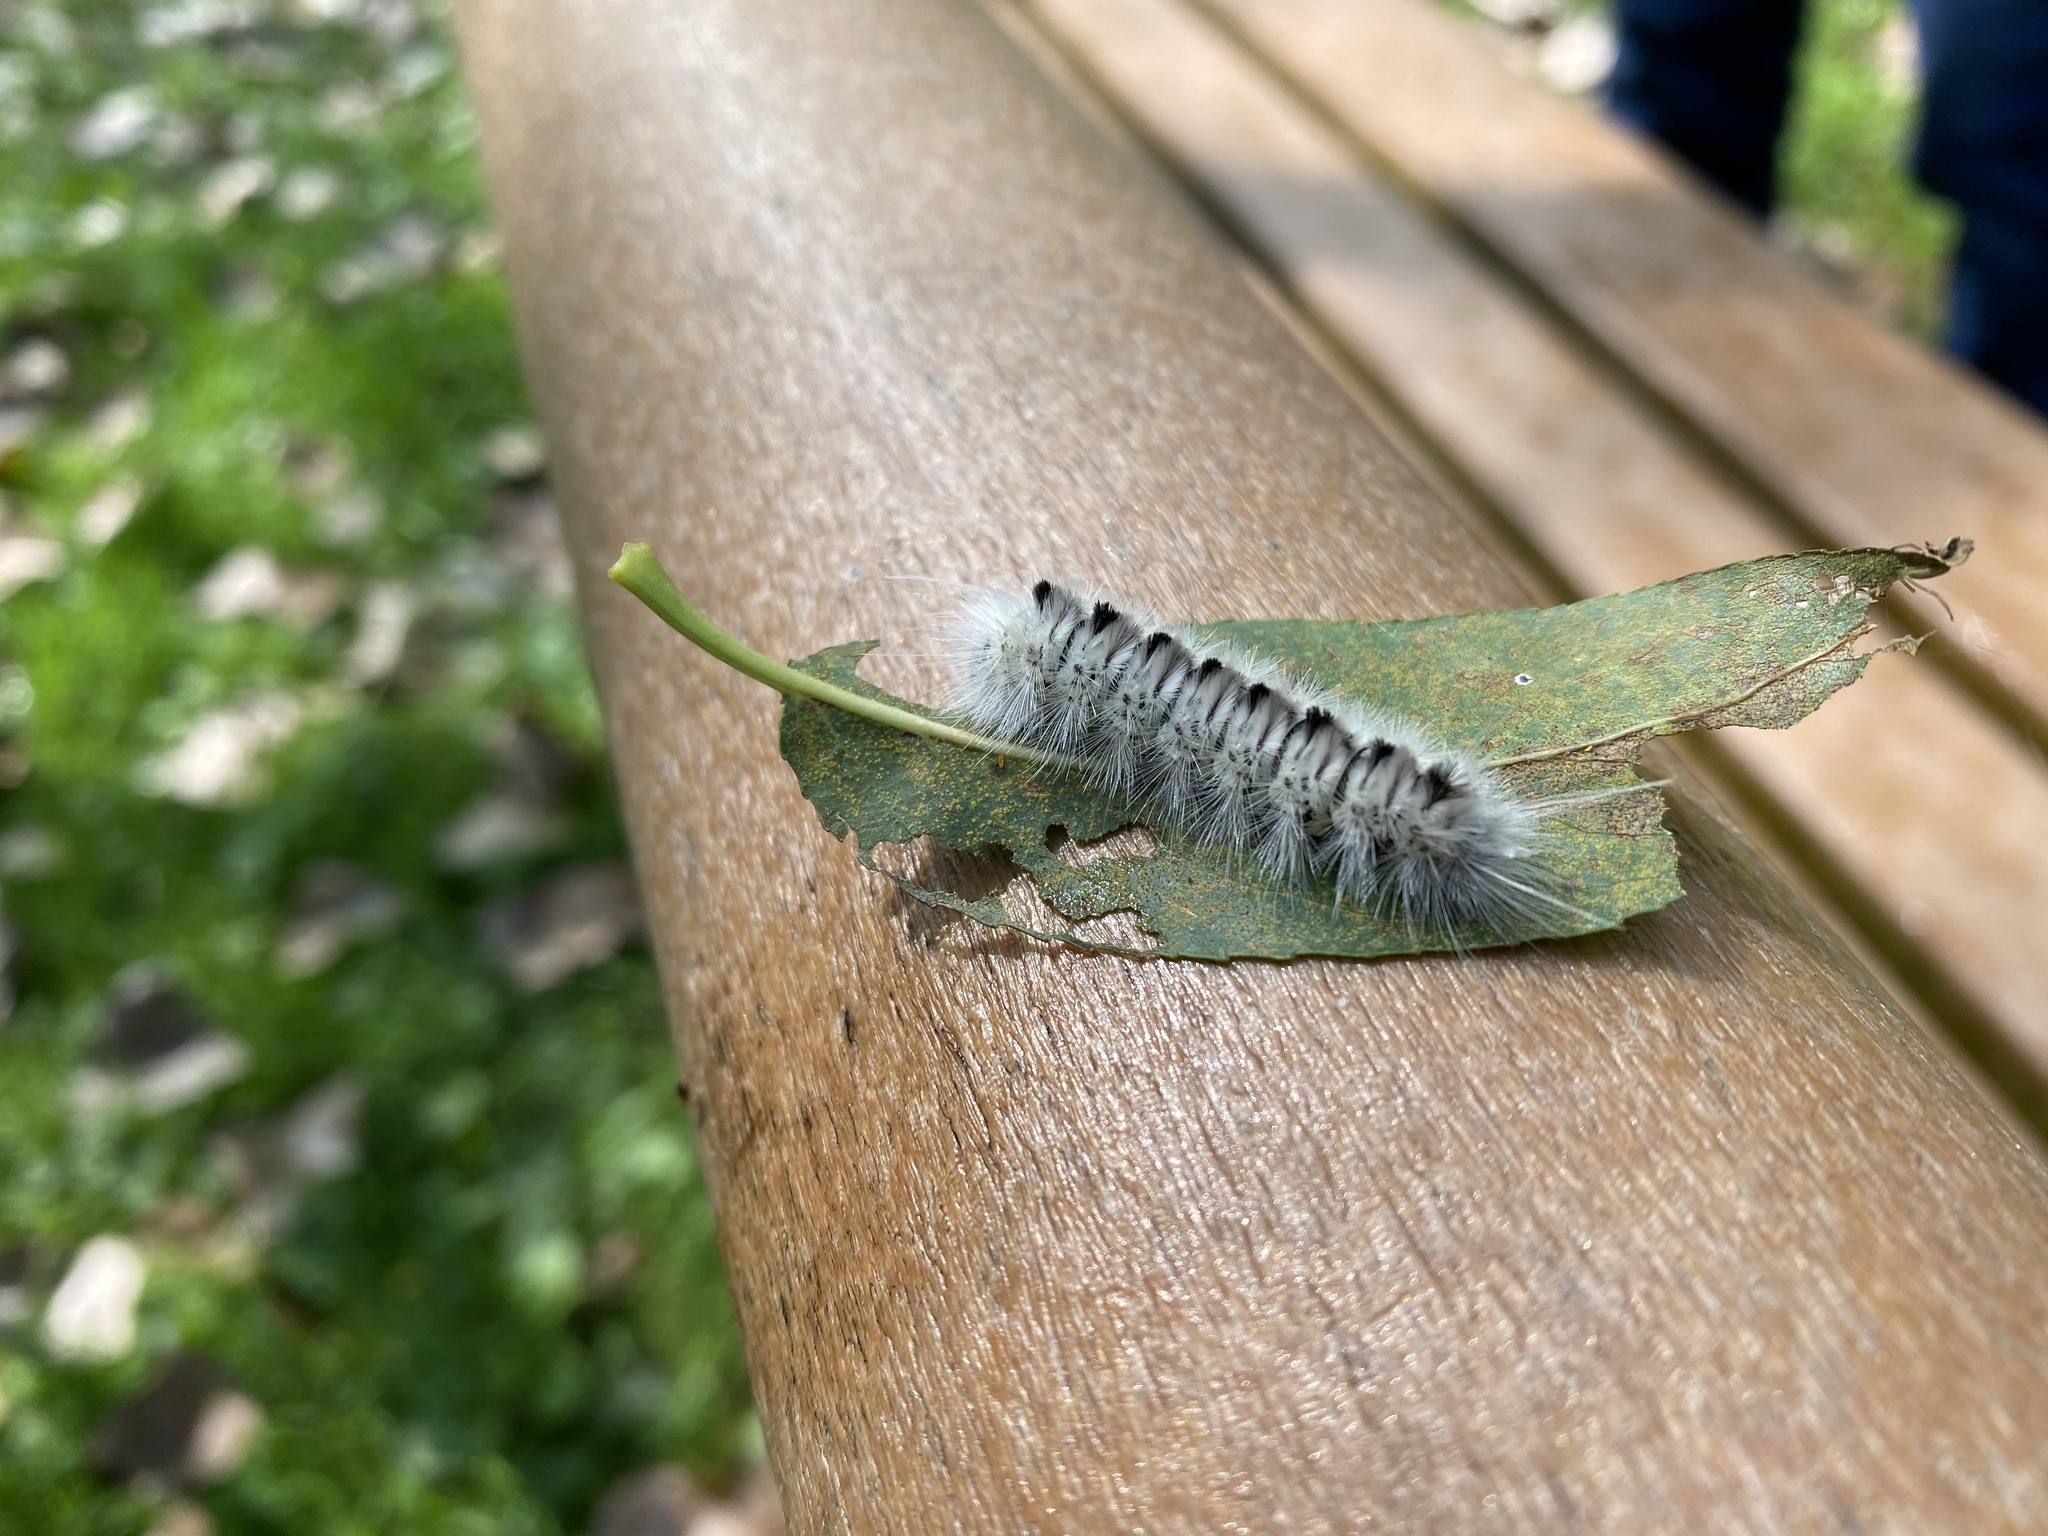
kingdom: Animalia
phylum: Arthropoda
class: Insecta
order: Lepidoptera
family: Erebidae
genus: Lophocampa
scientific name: Lophocampa caryae
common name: Hickory tussock moth
